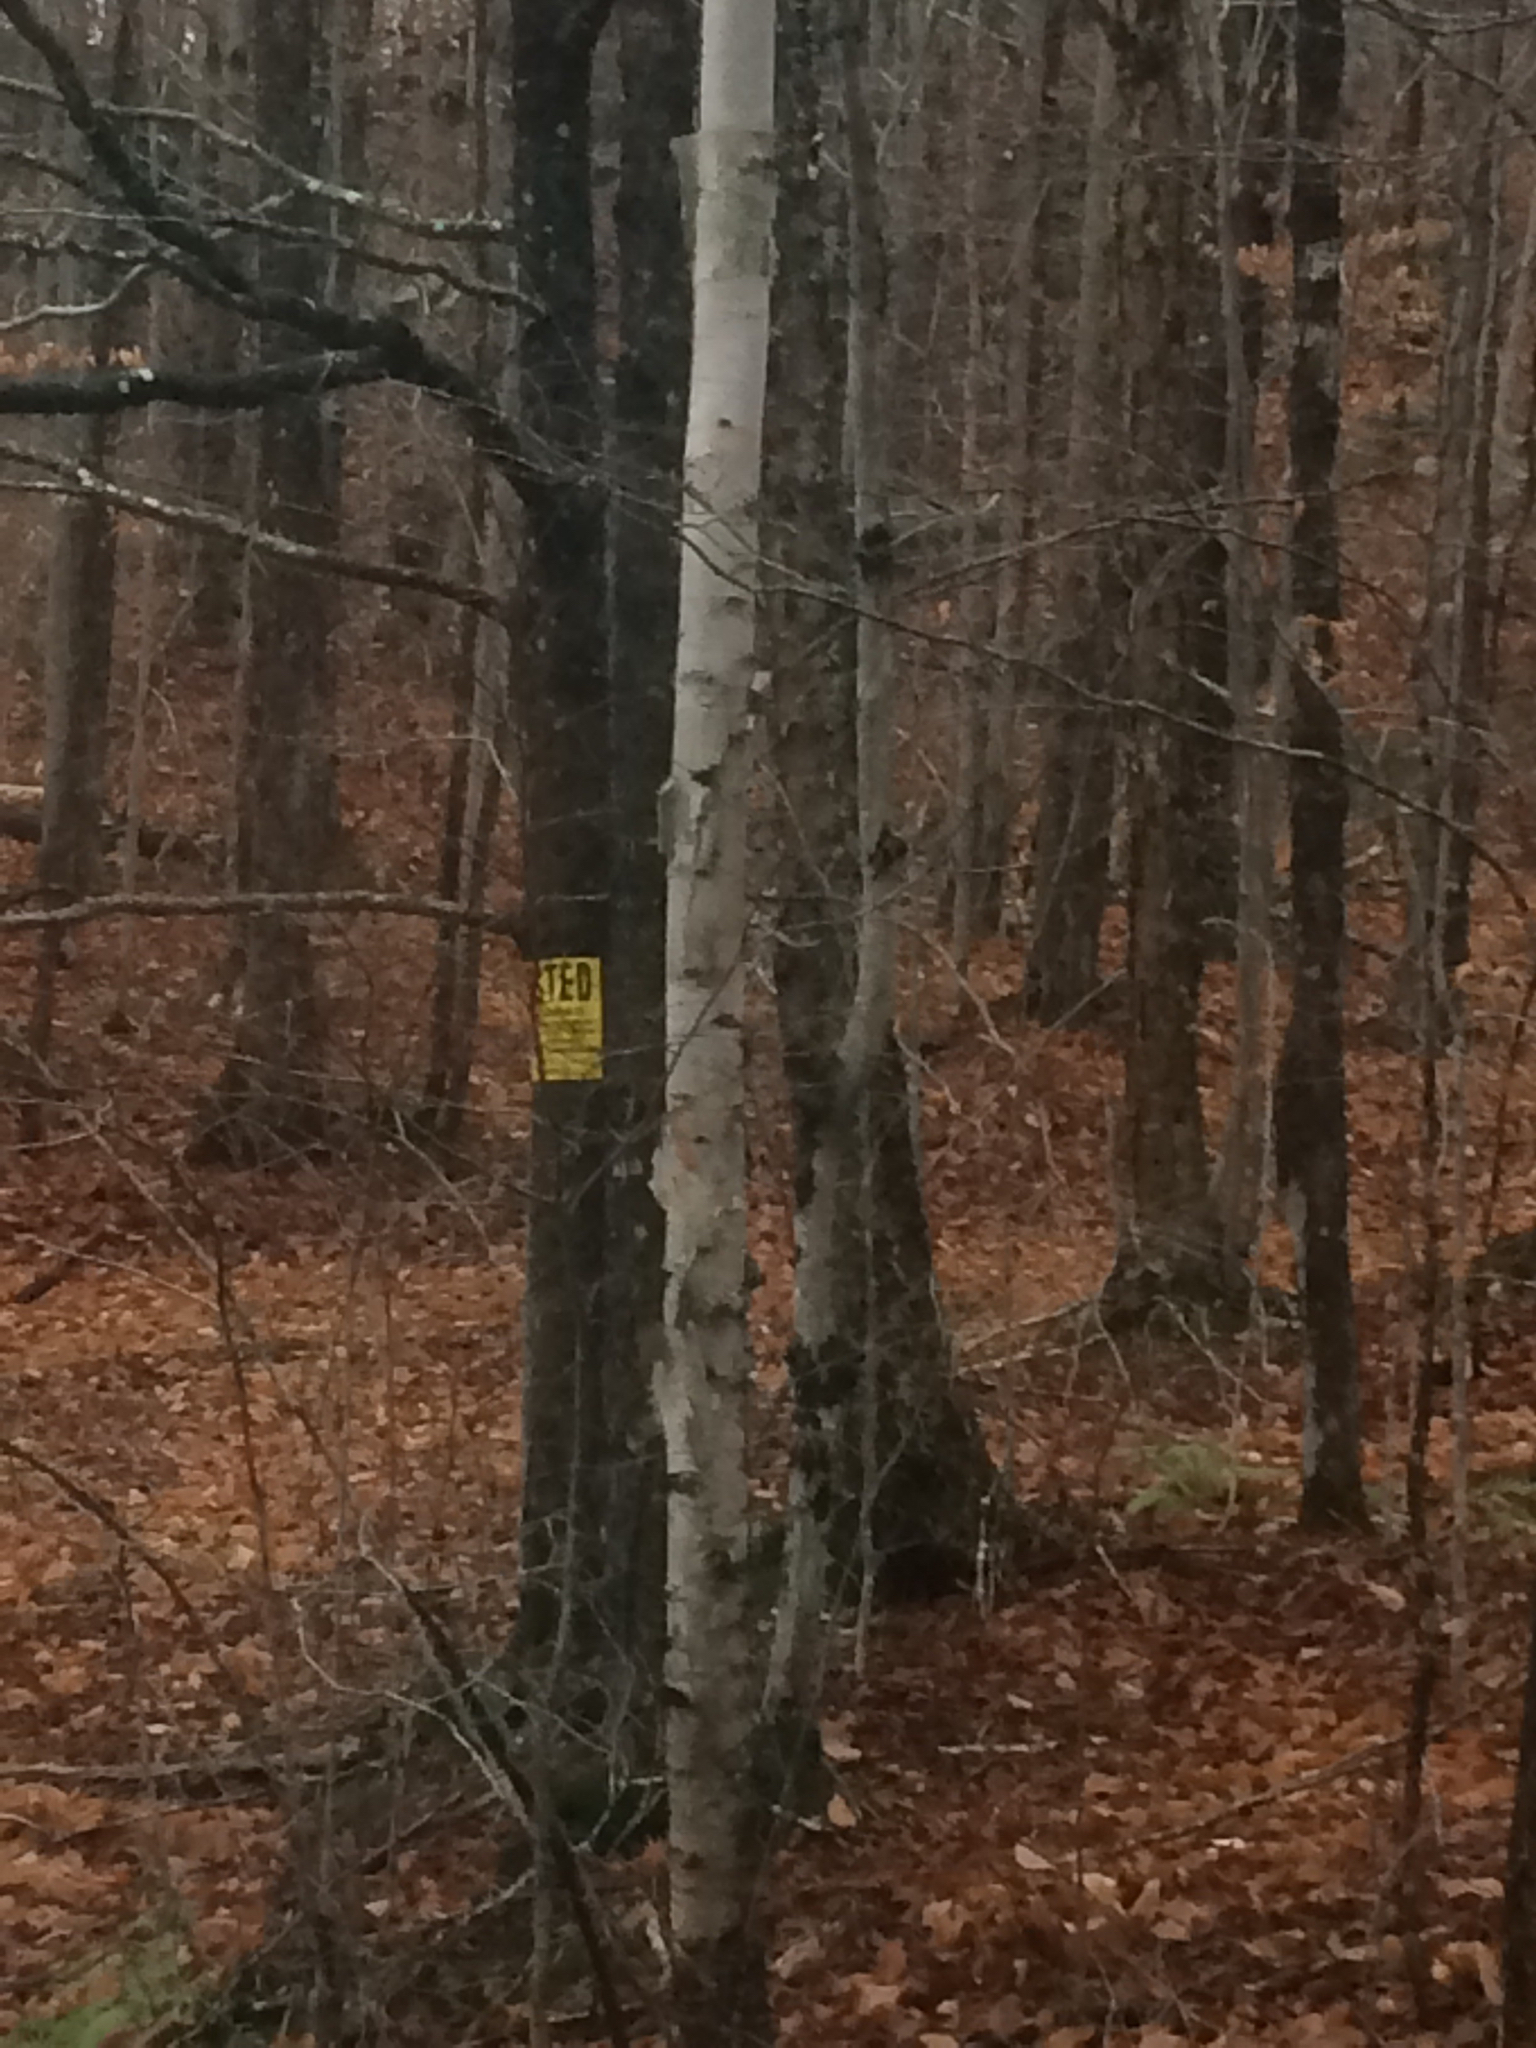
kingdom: Plantae
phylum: Tracheophyta
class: Magnoliopsida
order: Fagales
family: Betulaceae
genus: Betula
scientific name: Betula papyrifera
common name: Paper birch
